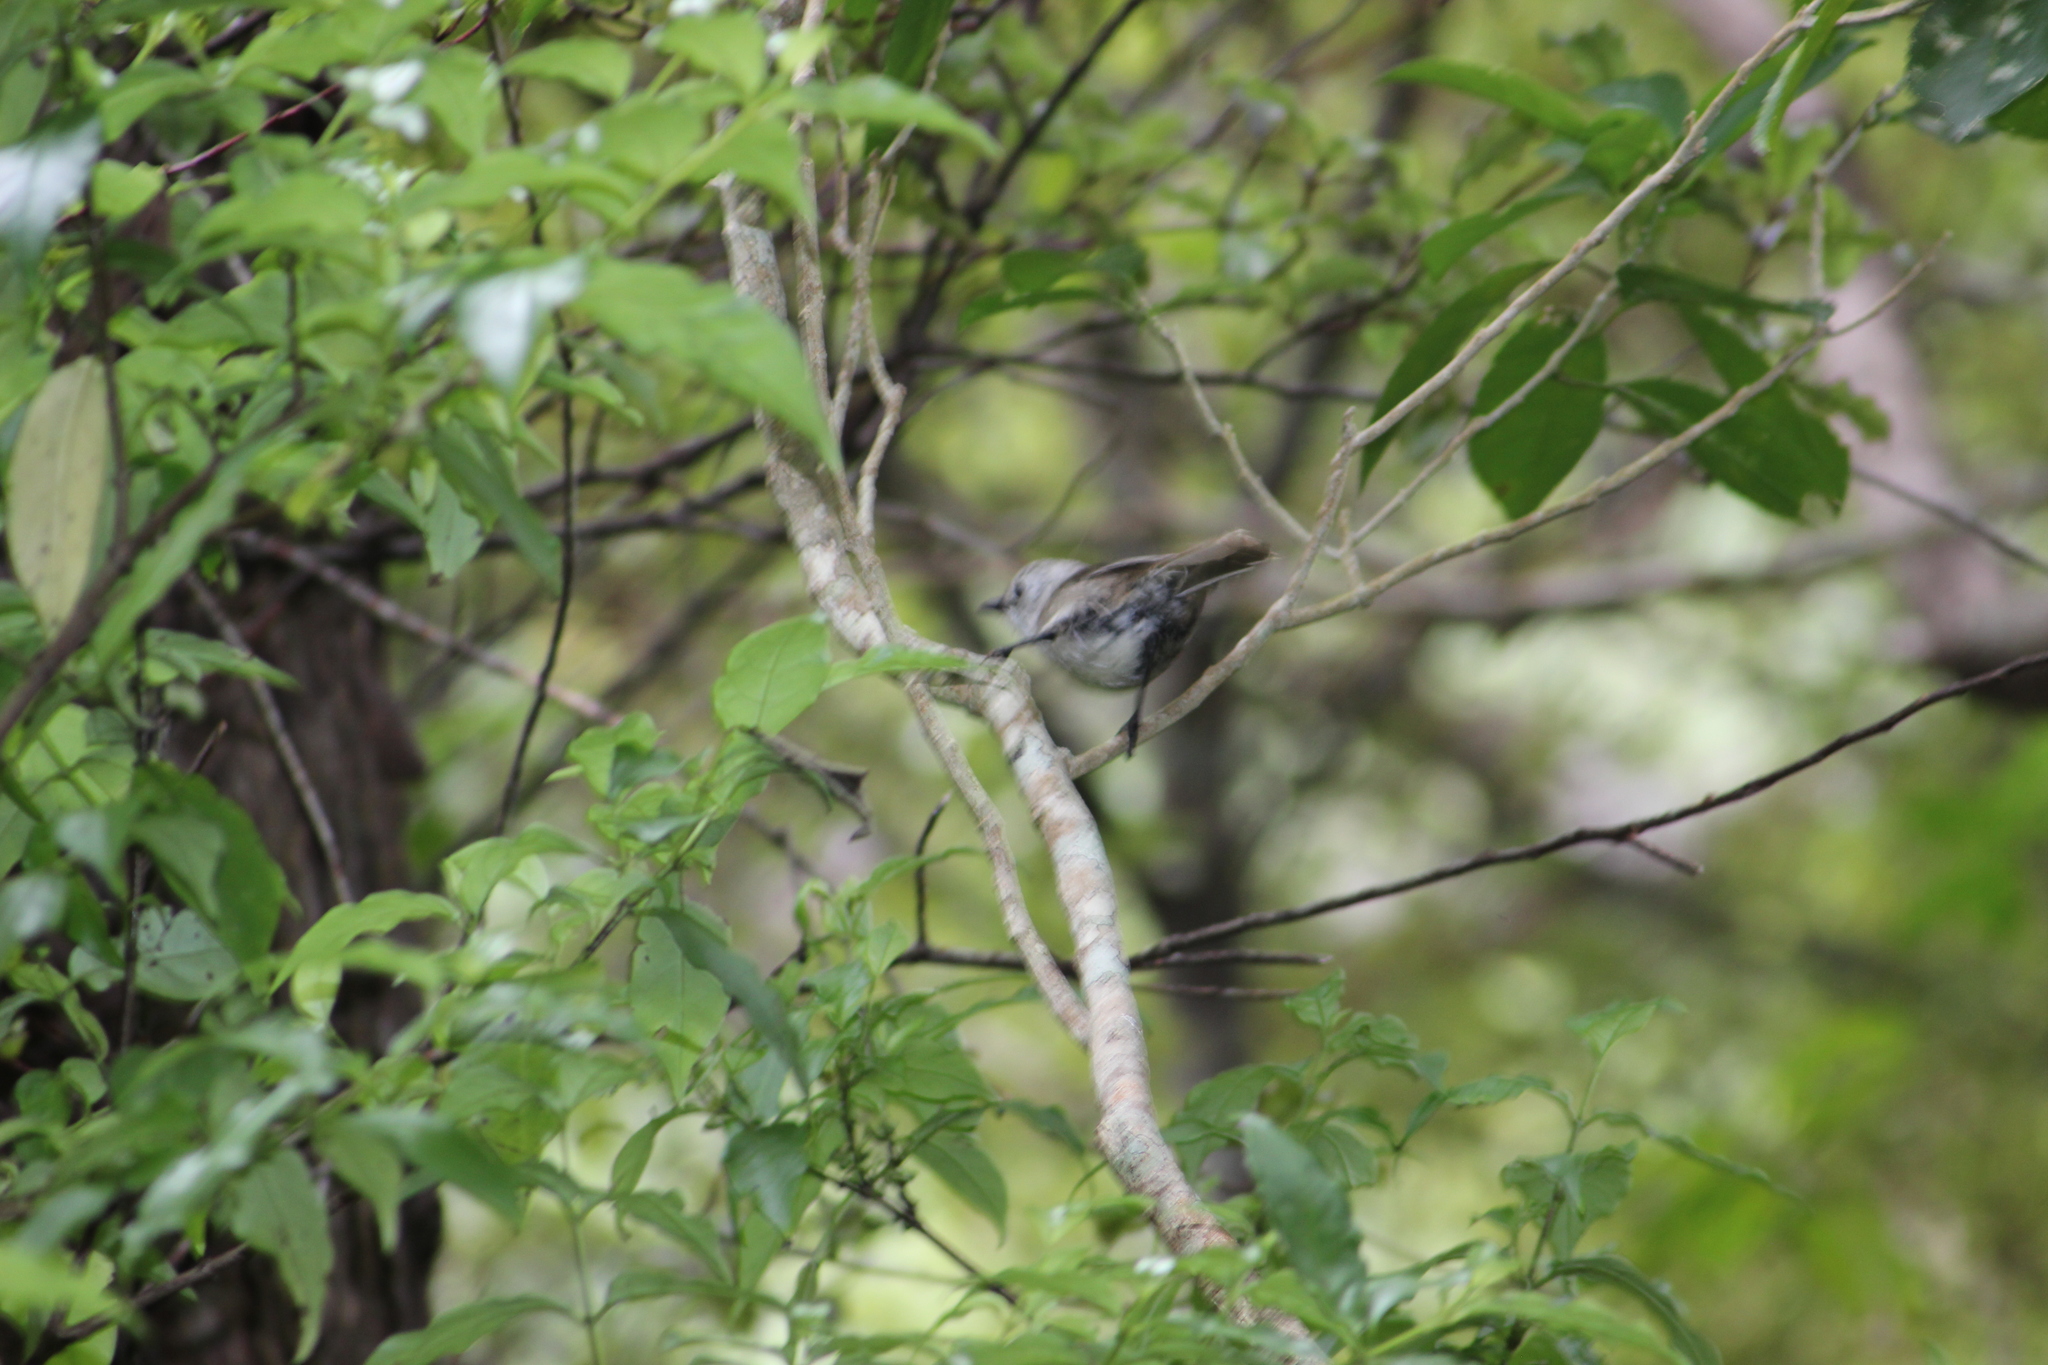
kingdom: Animalia
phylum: Chordata
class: Aves
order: Passeriformes
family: Acanthizidae
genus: Mohoua
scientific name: Mohoua albicilla
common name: Whitehead
